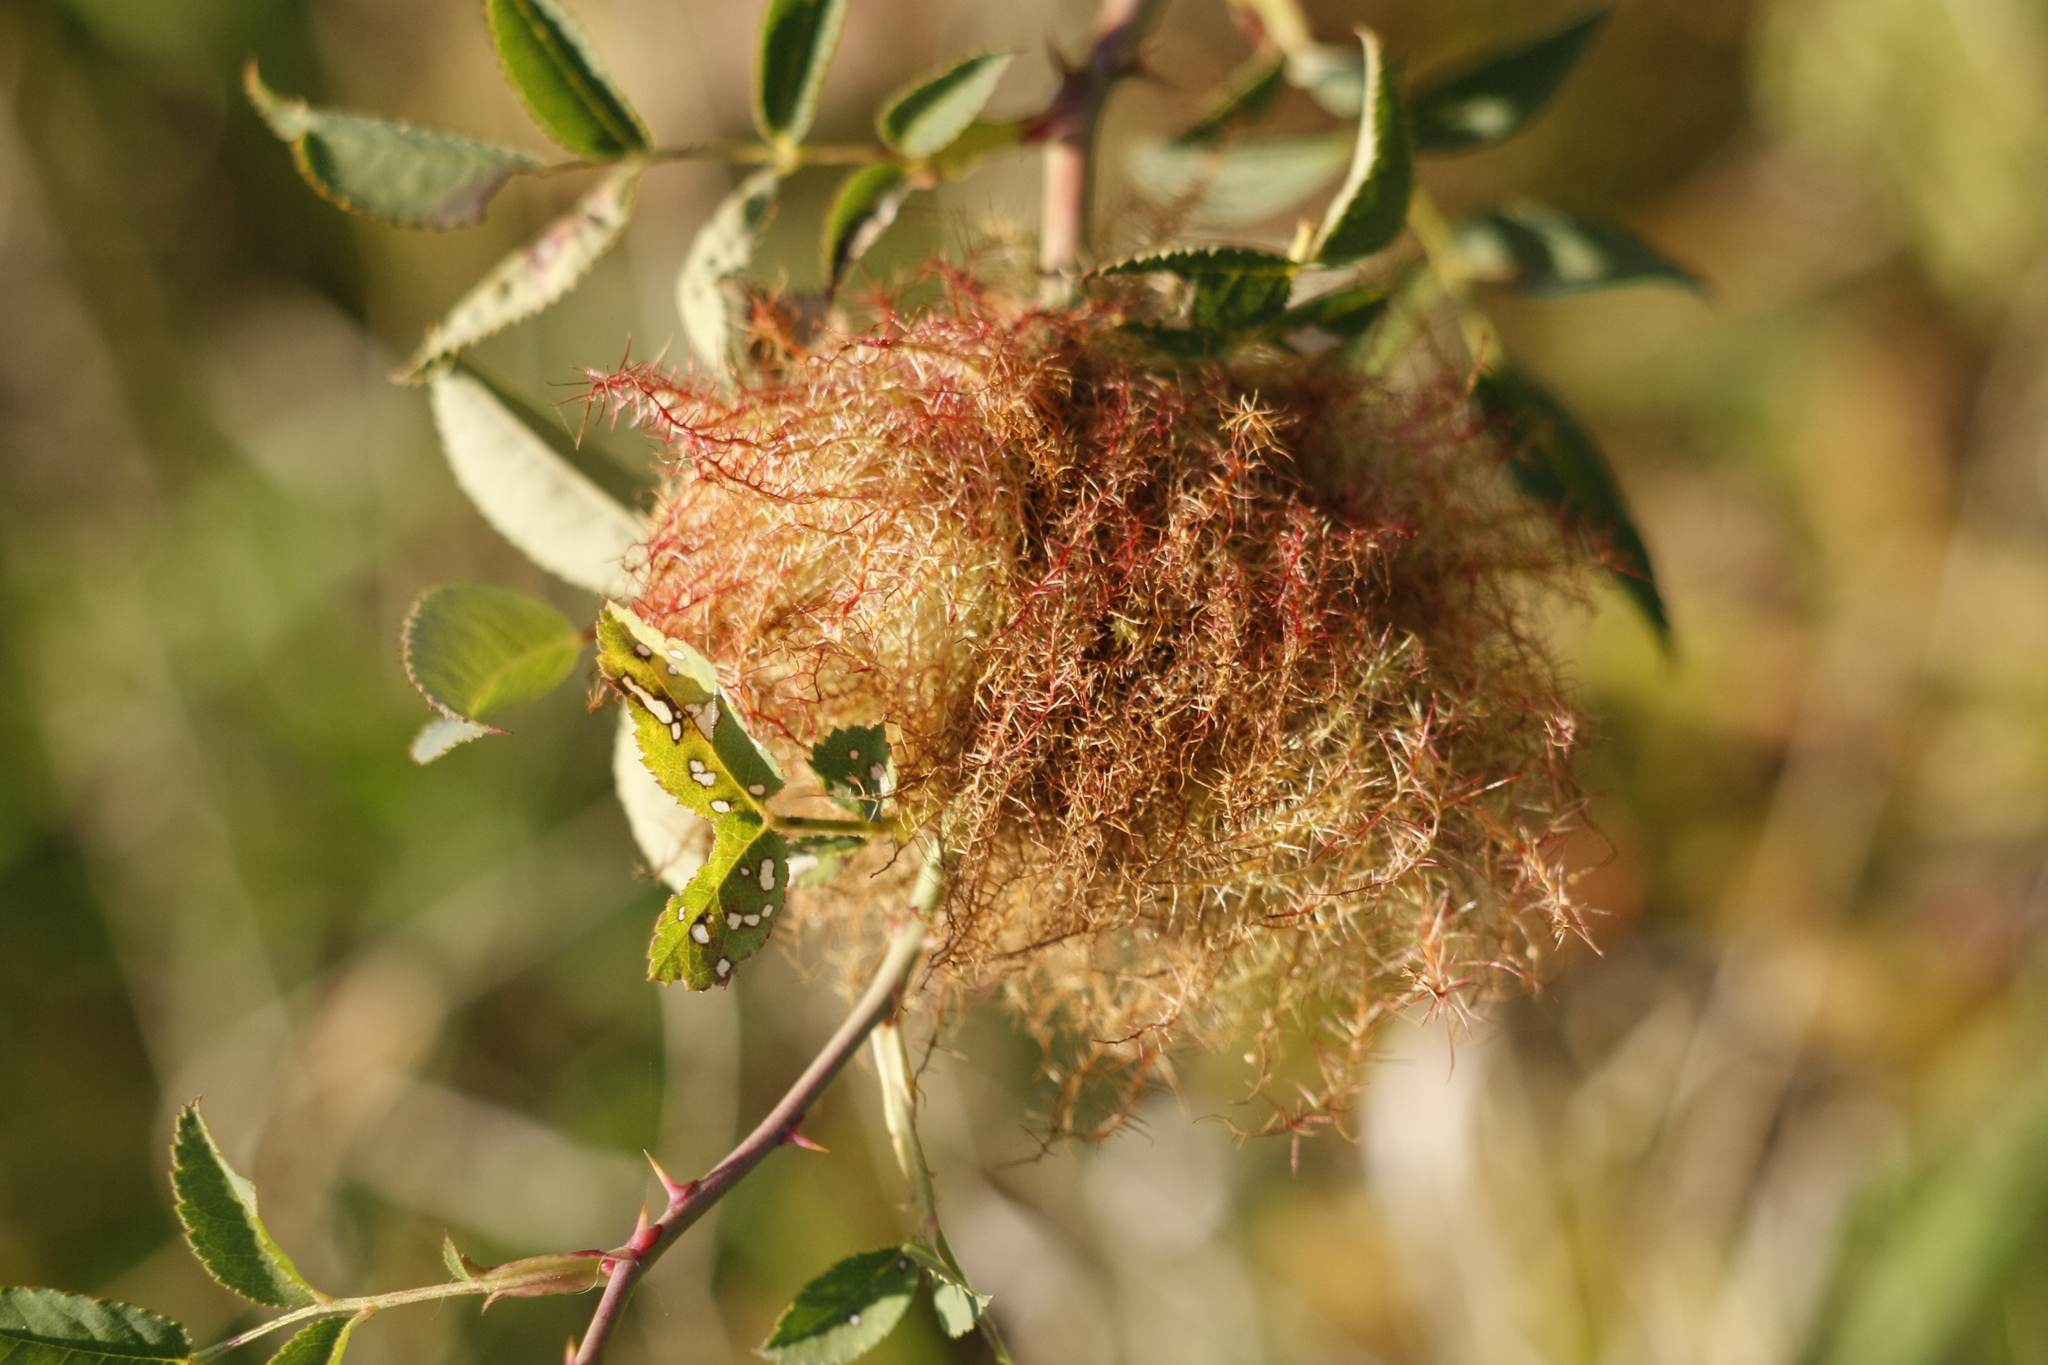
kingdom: Animalia
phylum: Arthropoda
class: Insecta
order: Hymenoptera
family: Cynipidae
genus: Diplolepis
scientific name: Diplolepis rosae
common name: Bedeguar gall
